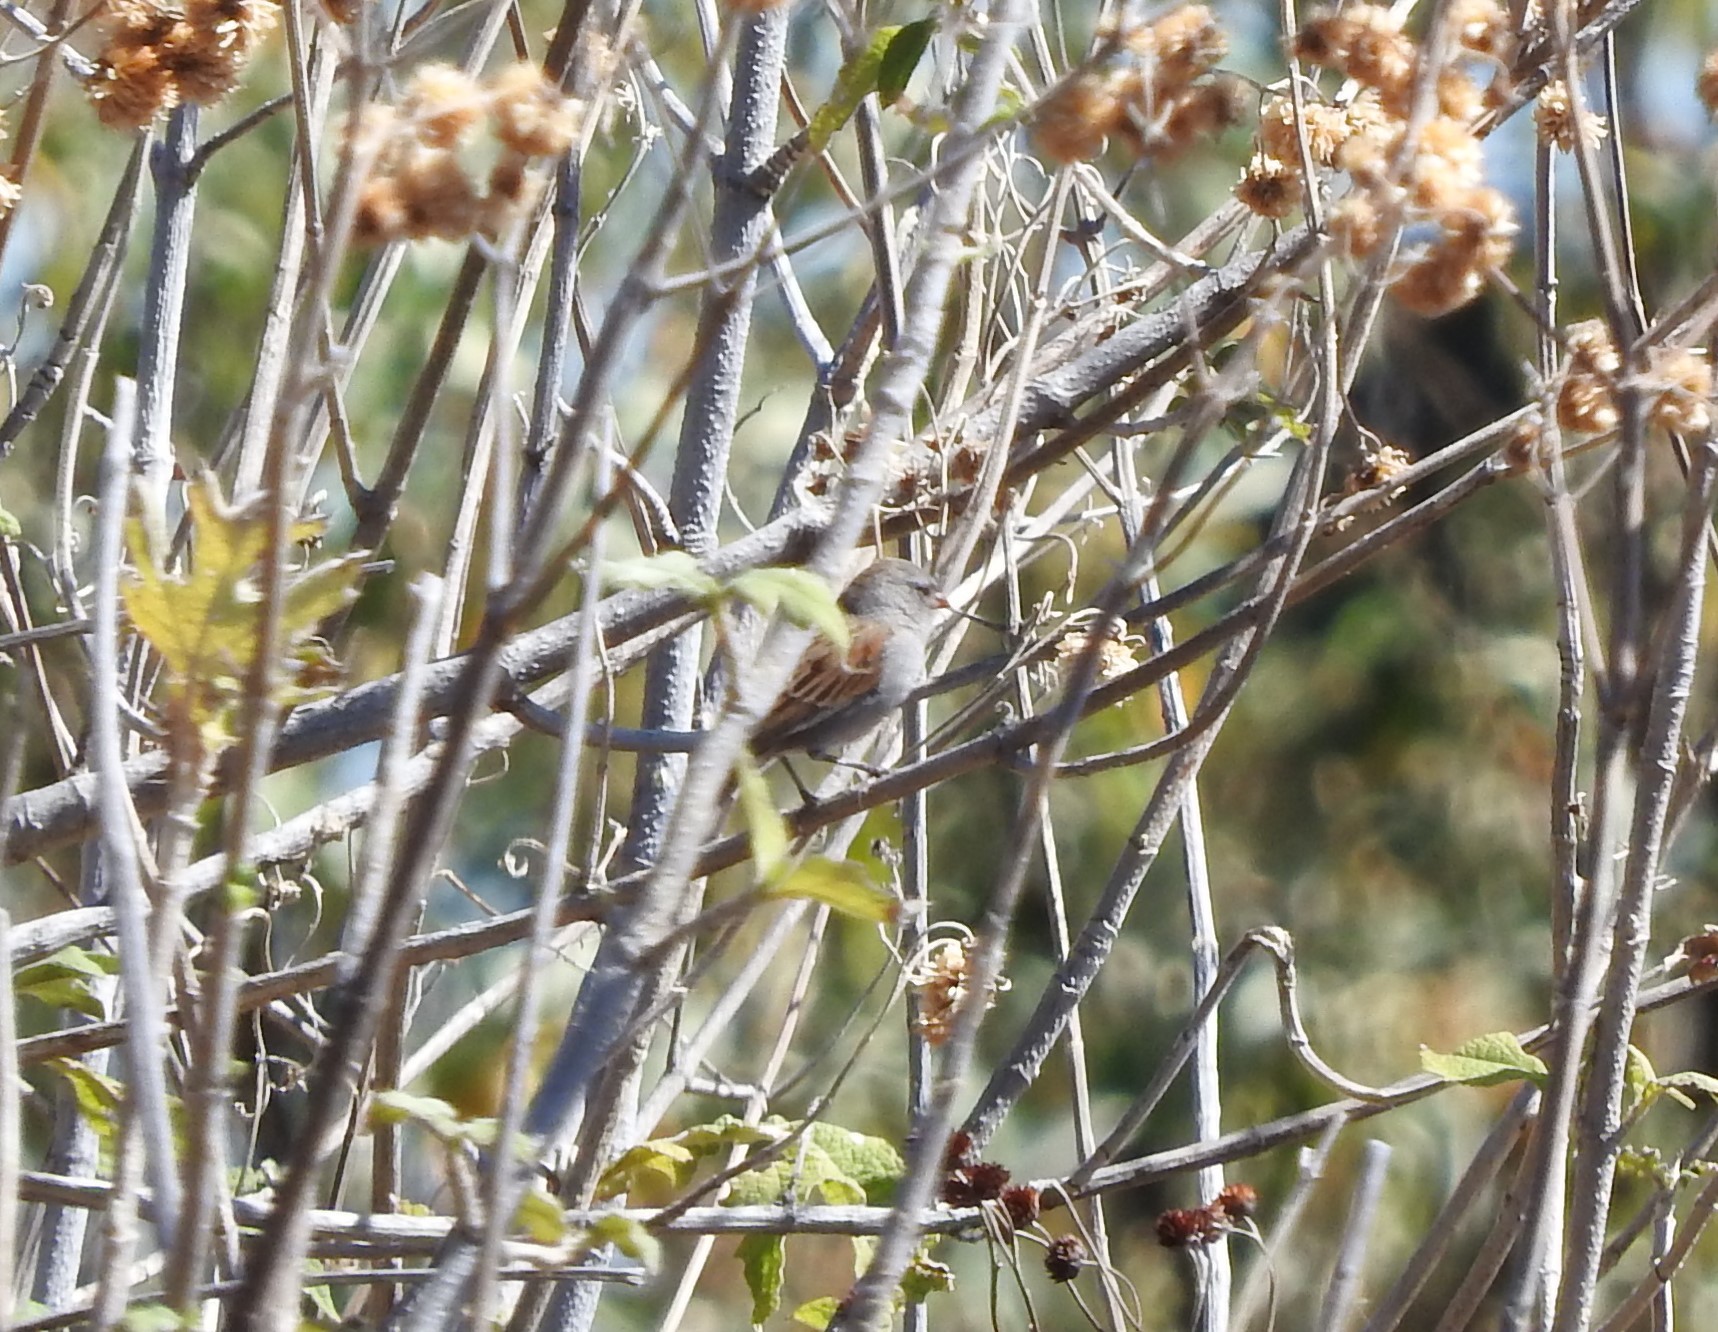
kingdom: Animalia
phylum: Chordata
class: Aves
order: Passeriformes
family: Passerellidae
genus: Spizella
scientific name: Spizella atrogularis
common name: Black-chinned sparrow
